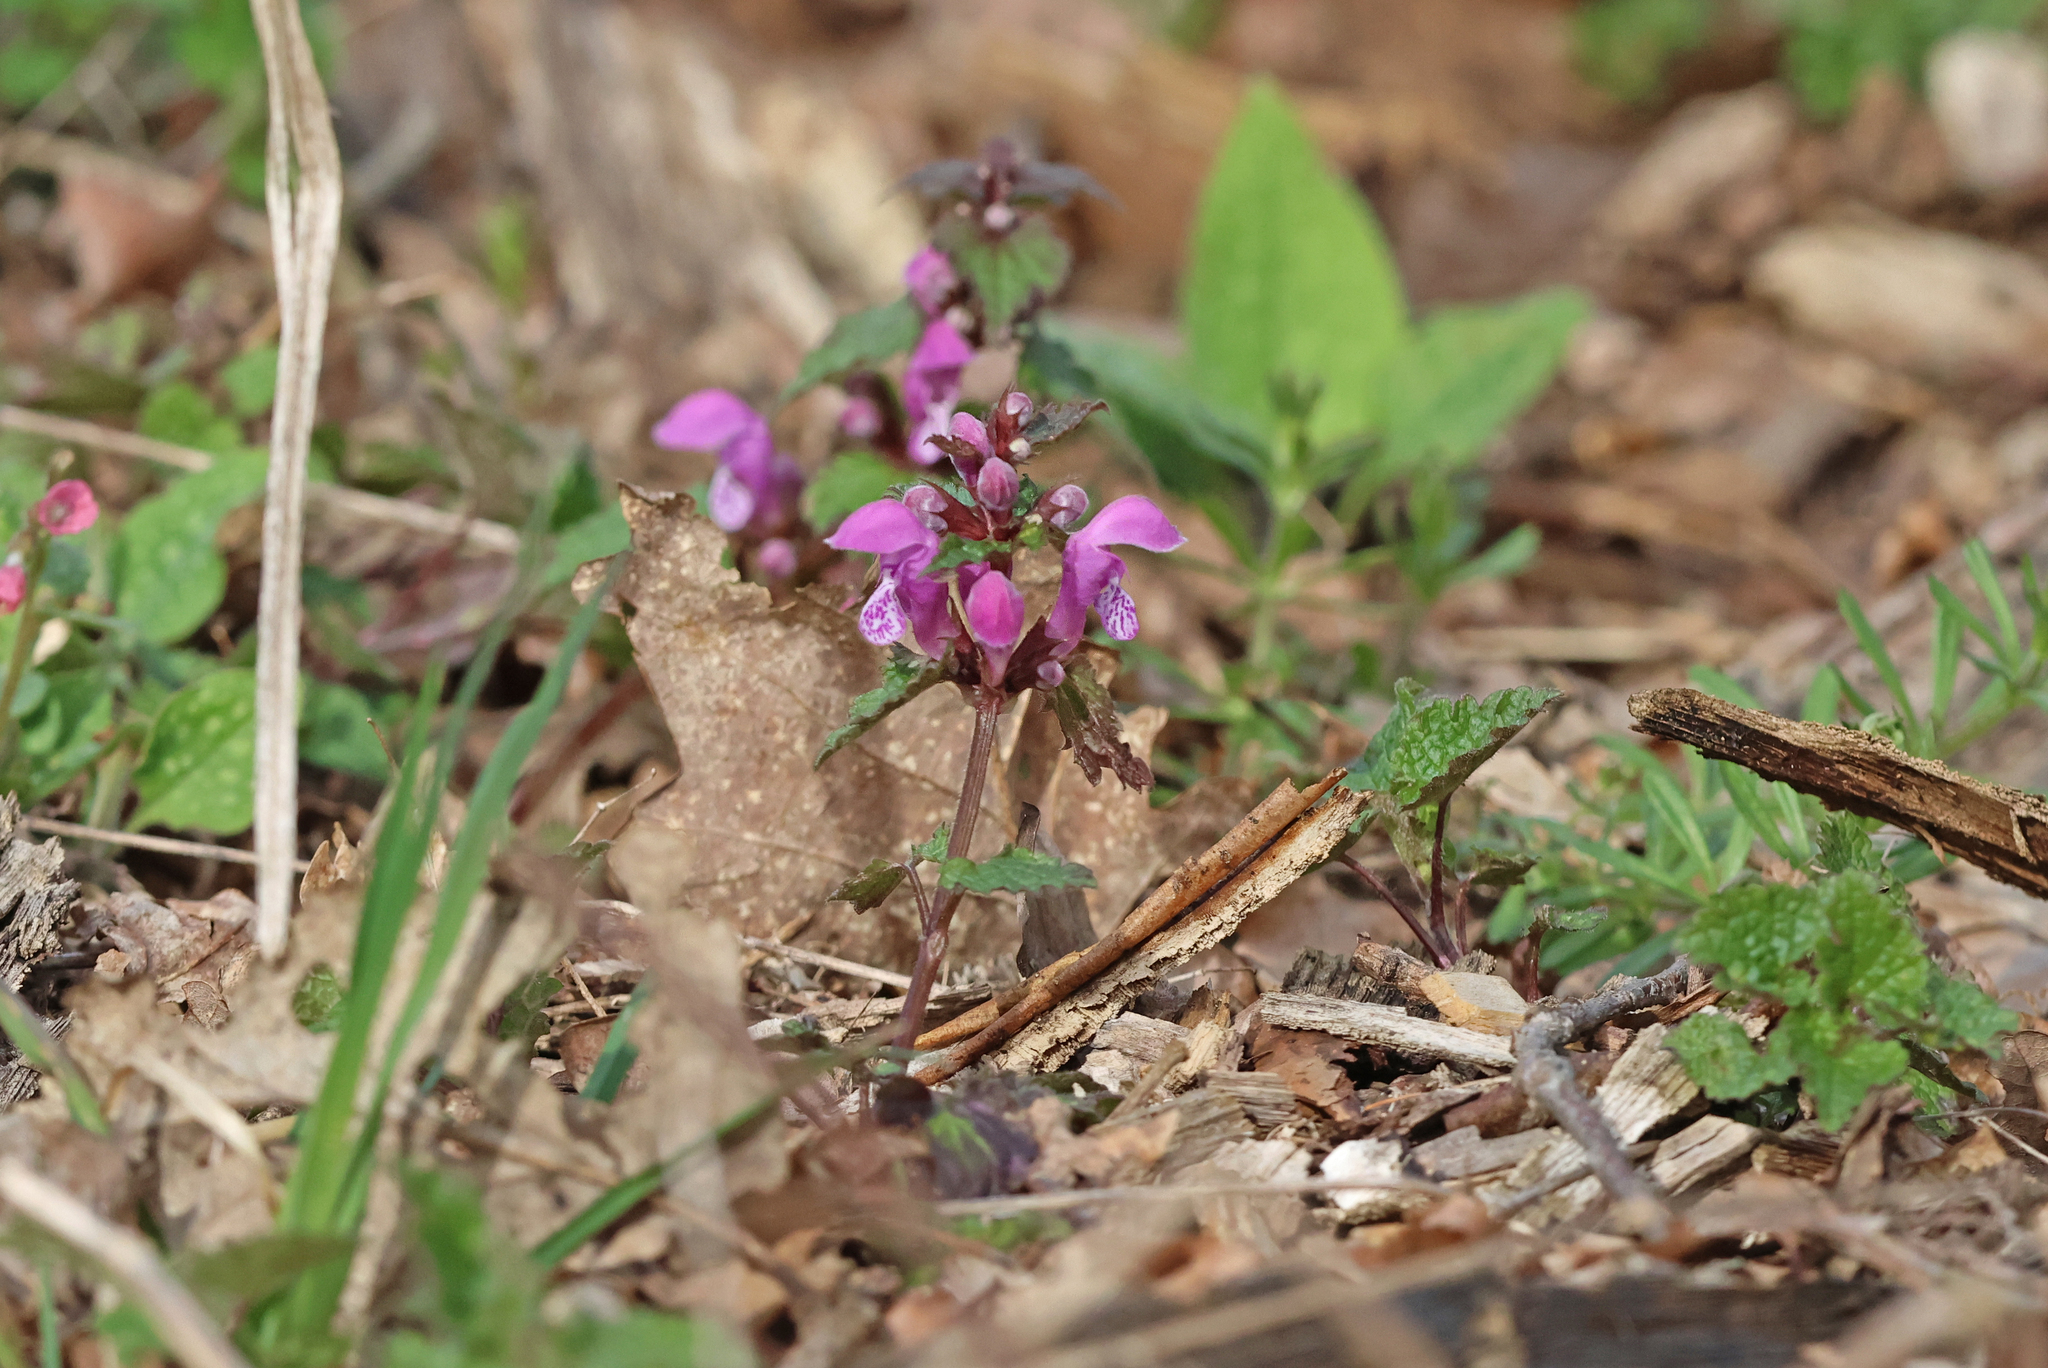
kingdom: Plantae
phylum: Tracheophyta
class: Magnoliopsida
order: Lamiales
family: Lamiaceae
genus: Lamium
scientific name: Lamium maculatum
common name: Spotted dead-nettle
